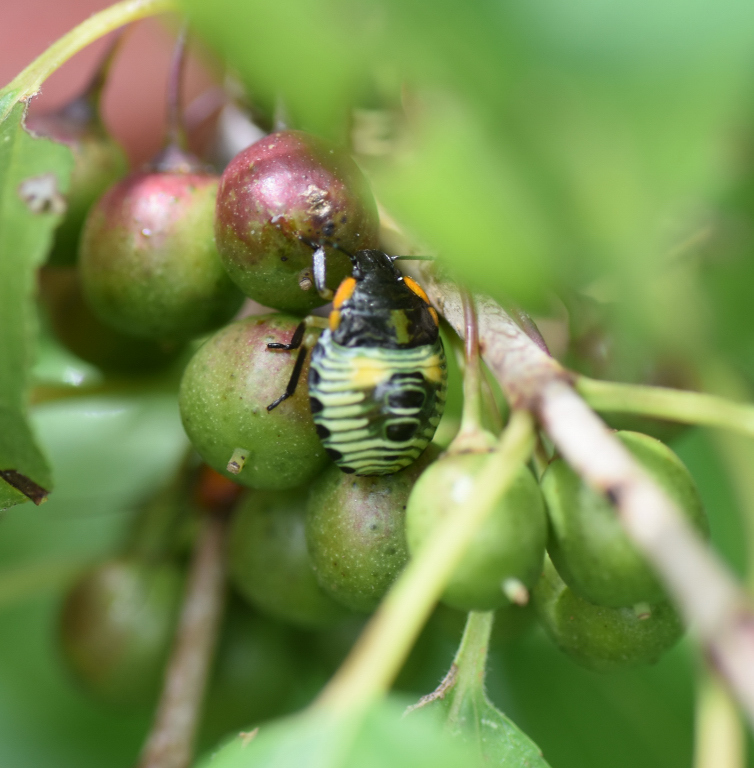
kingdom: Animalia
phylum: Arthropoda
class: Insecta
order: Hemiptera
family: Pentatomidae
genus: Chinavia
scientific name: Chinavia hilaris
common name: Green stink bug
